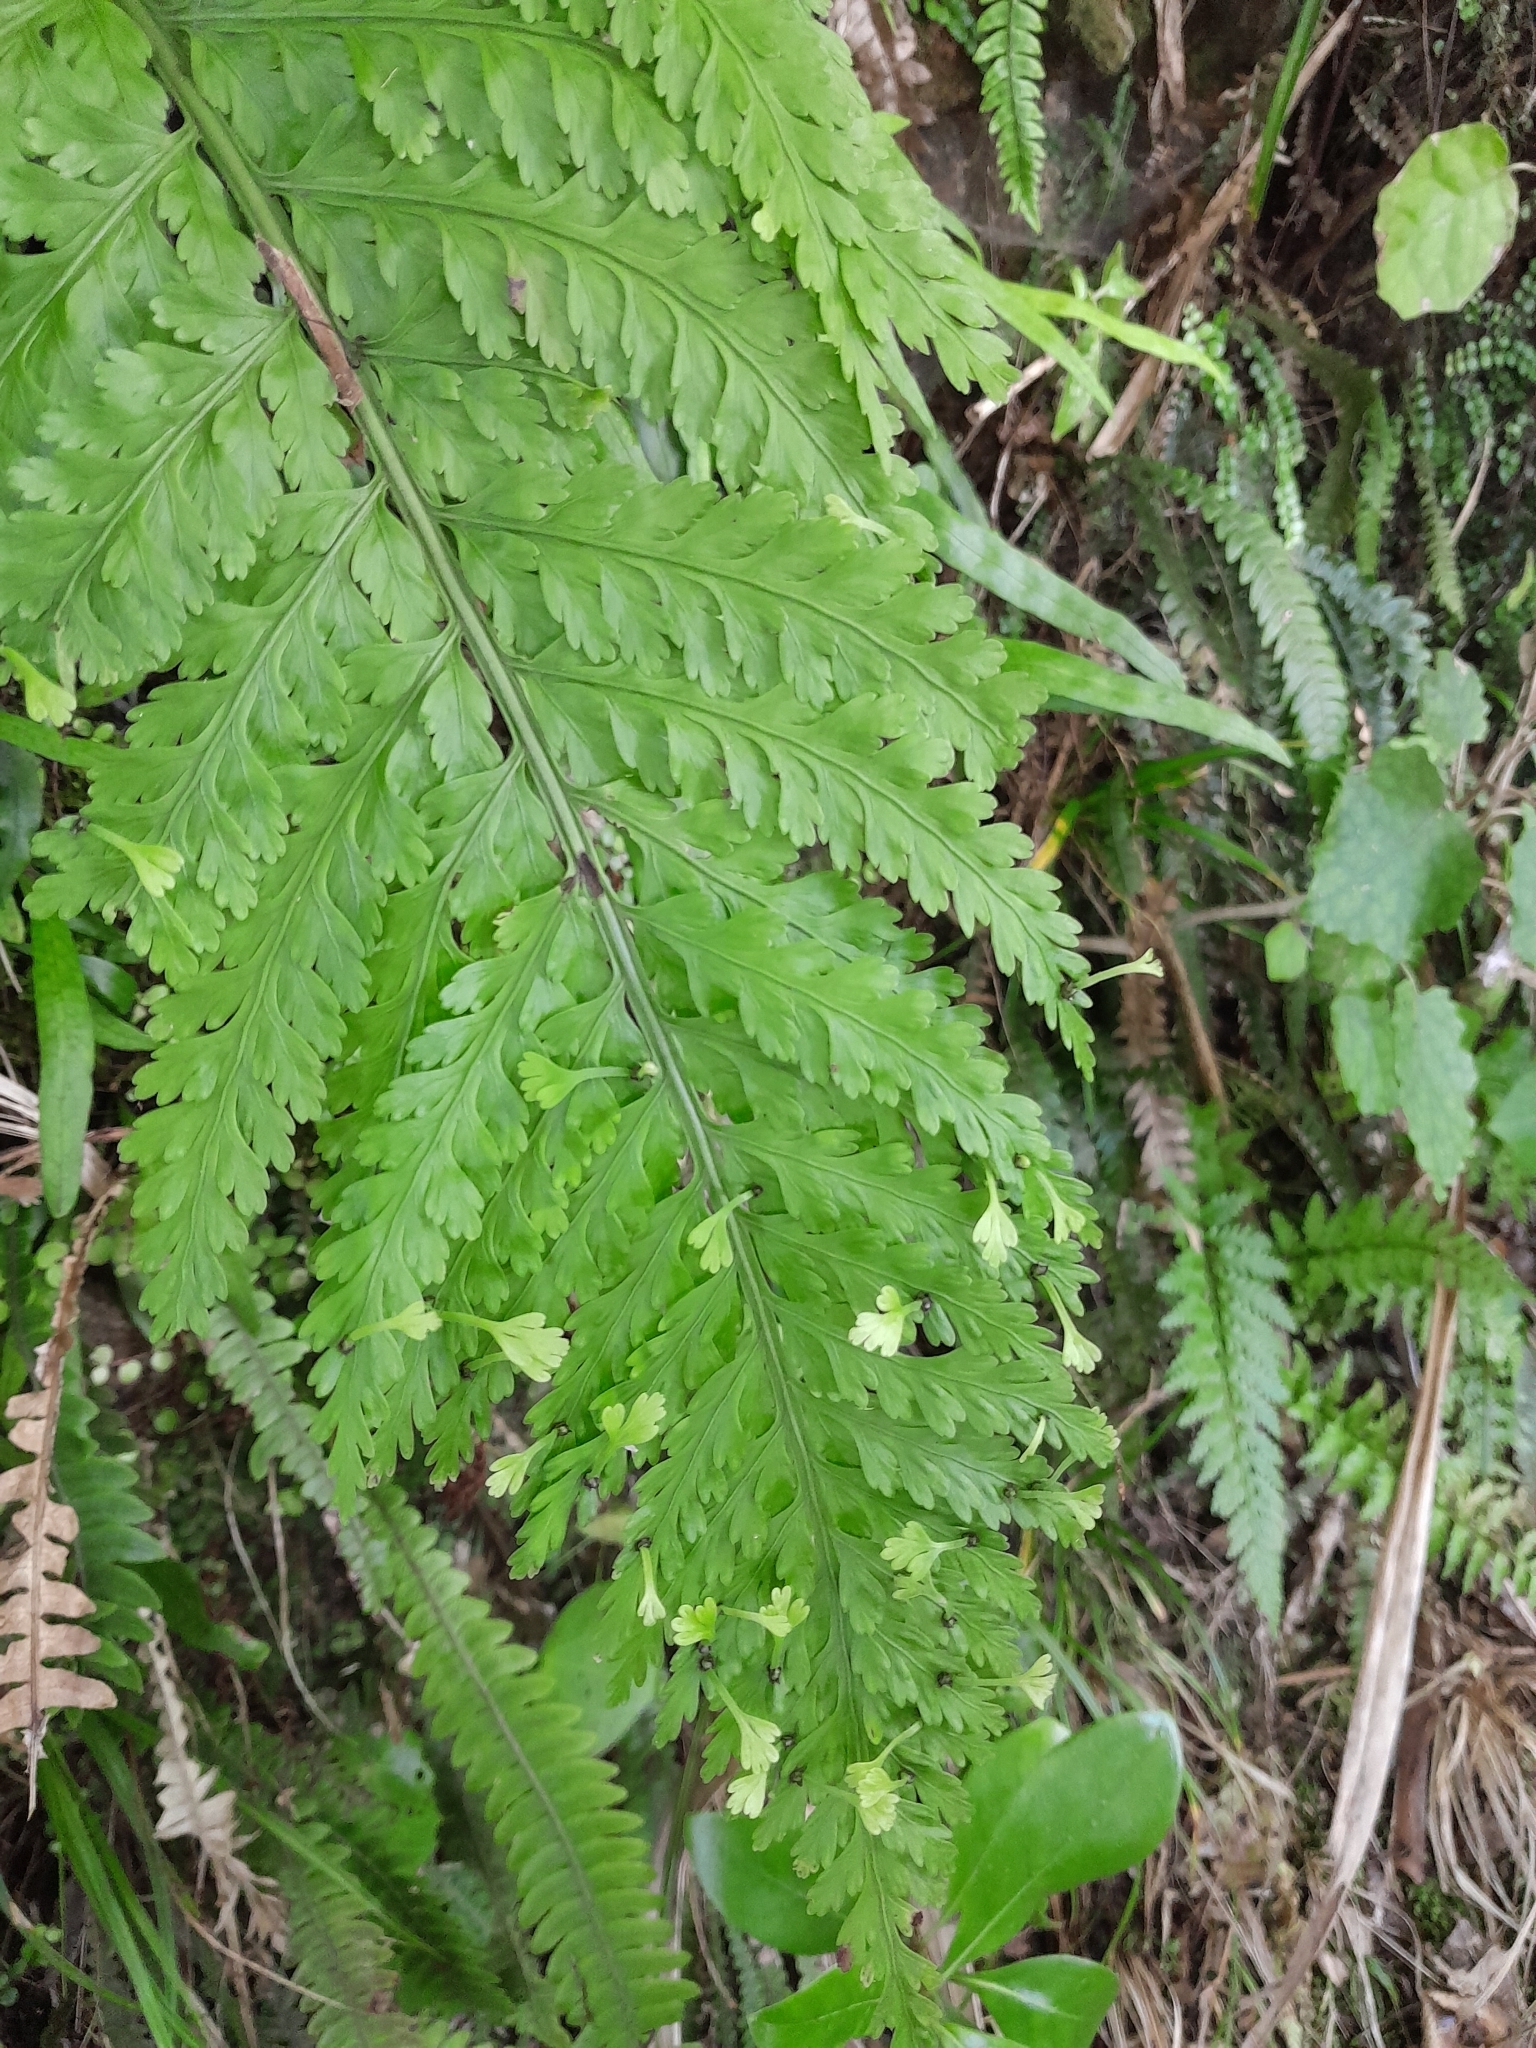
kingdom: Plantae
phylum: Tracheophyta
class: Polypodiopsida
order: Polypodiales
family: Aspleniaceae
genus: Asplenium
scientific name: Asplenium bulbiferum
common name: Mother fern
